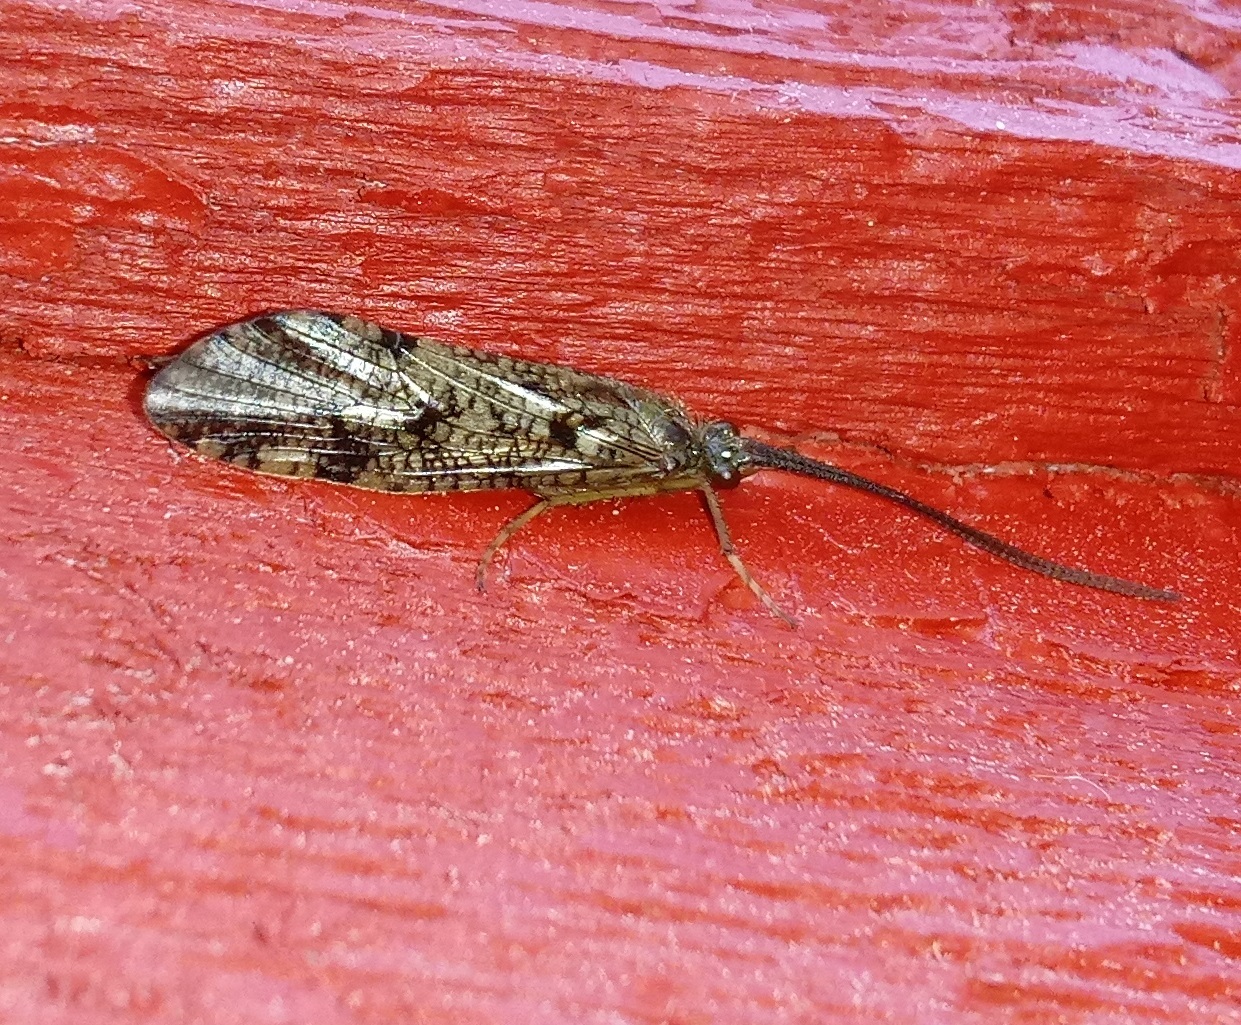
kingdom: Animalia
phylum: Arthropoda
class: Insecta
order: Trichoptera
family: Phryganeidae
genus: Banksiola
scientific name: Banksiola crotchi
